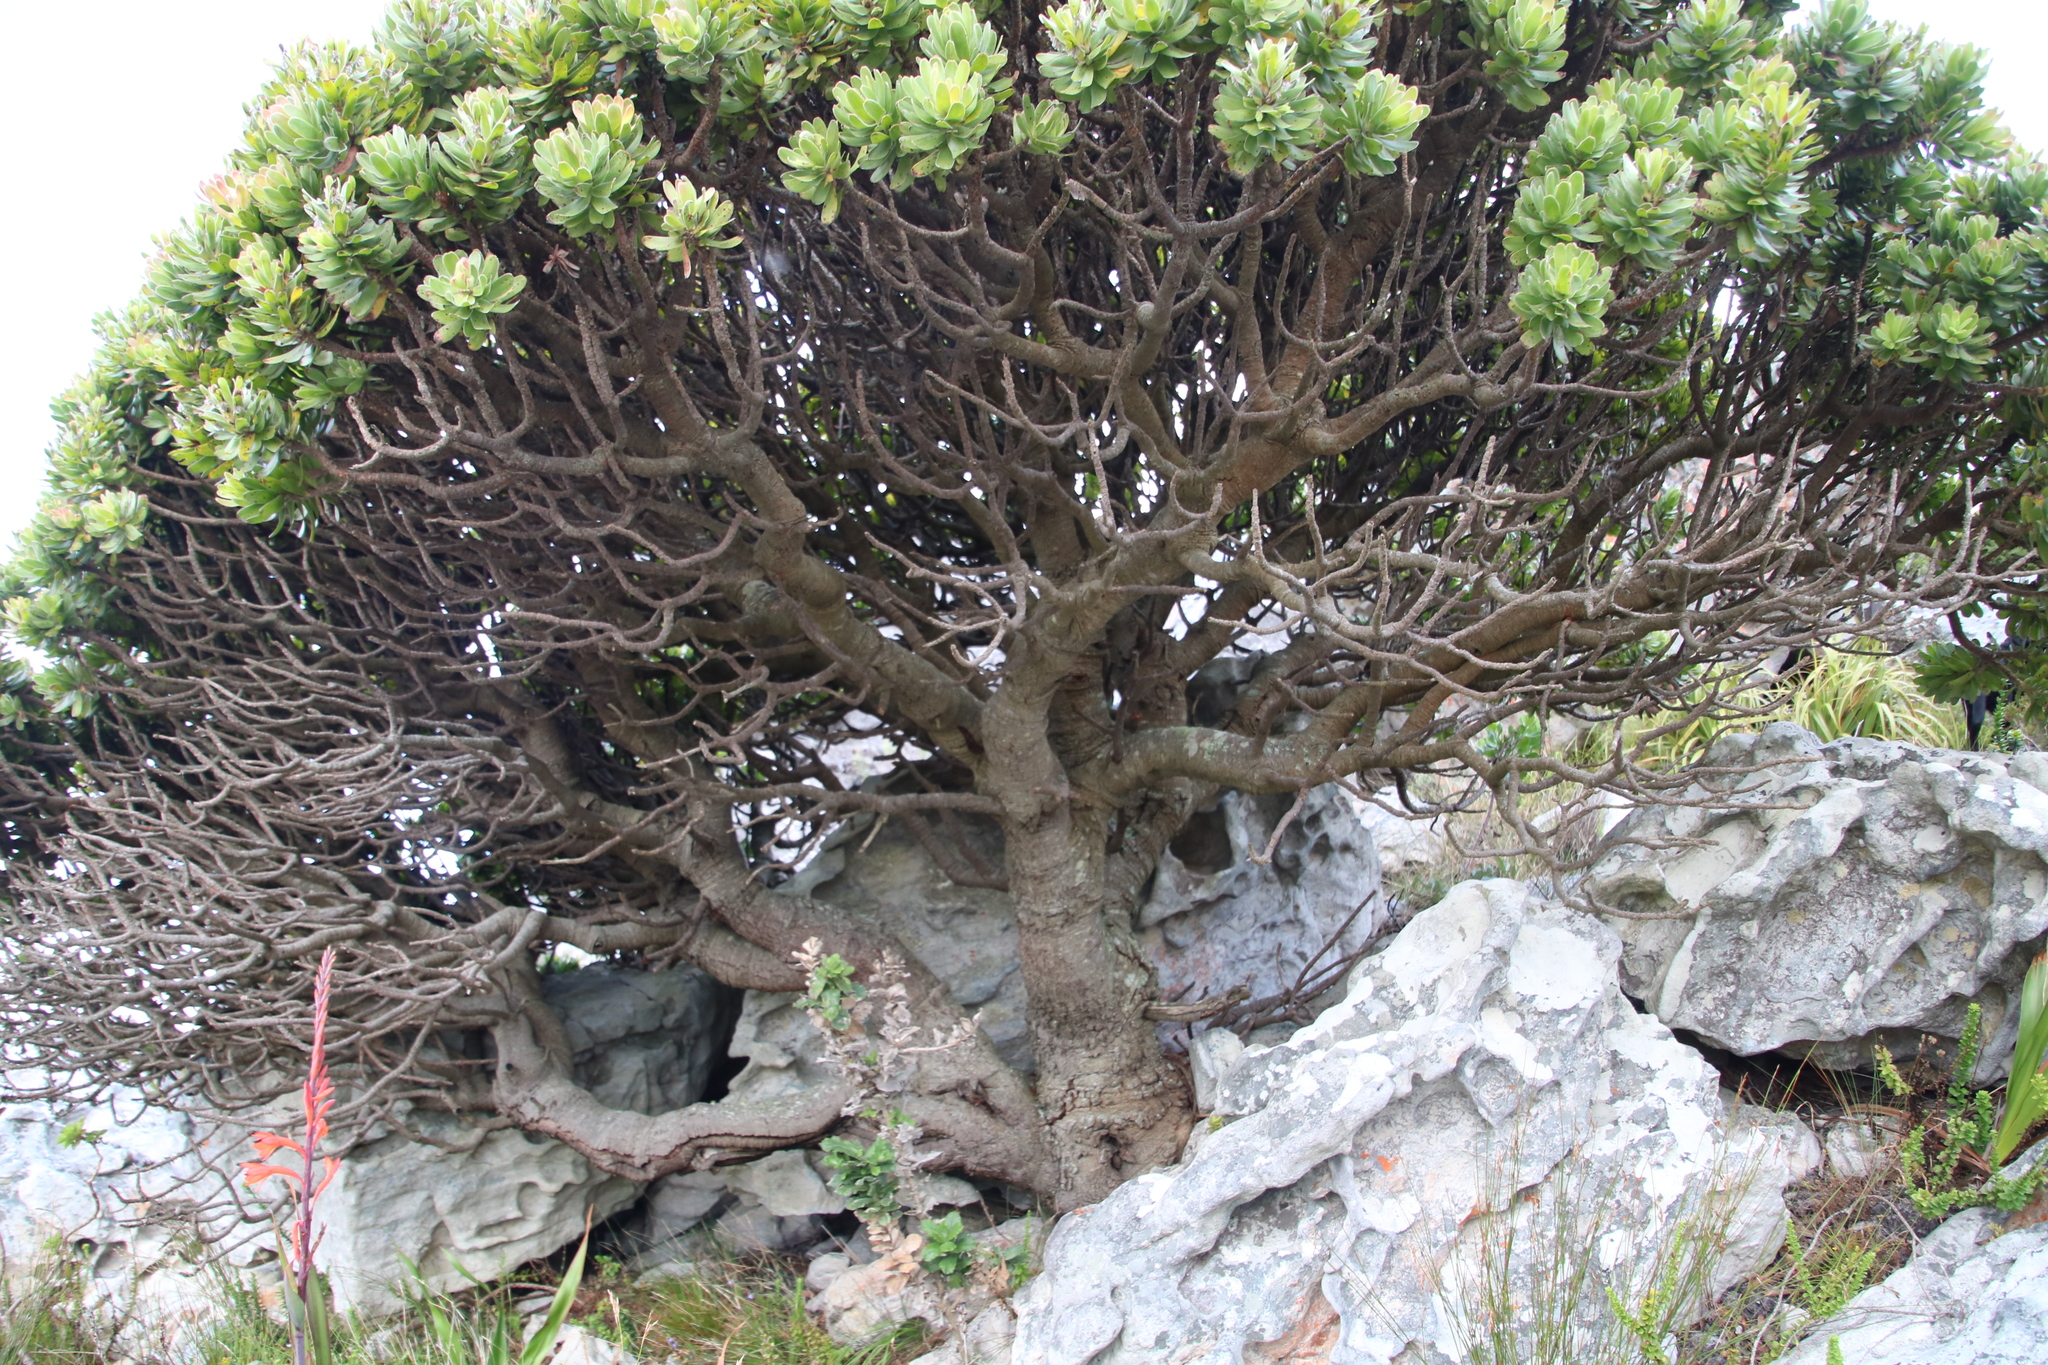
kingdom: Plantae
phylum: Tracheophyta
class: Magnoliopsida
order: Proteales
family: Proteaceae
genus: Mimetes
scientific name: Mimetes fimbriifolius
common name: Fringed bottlebrush
